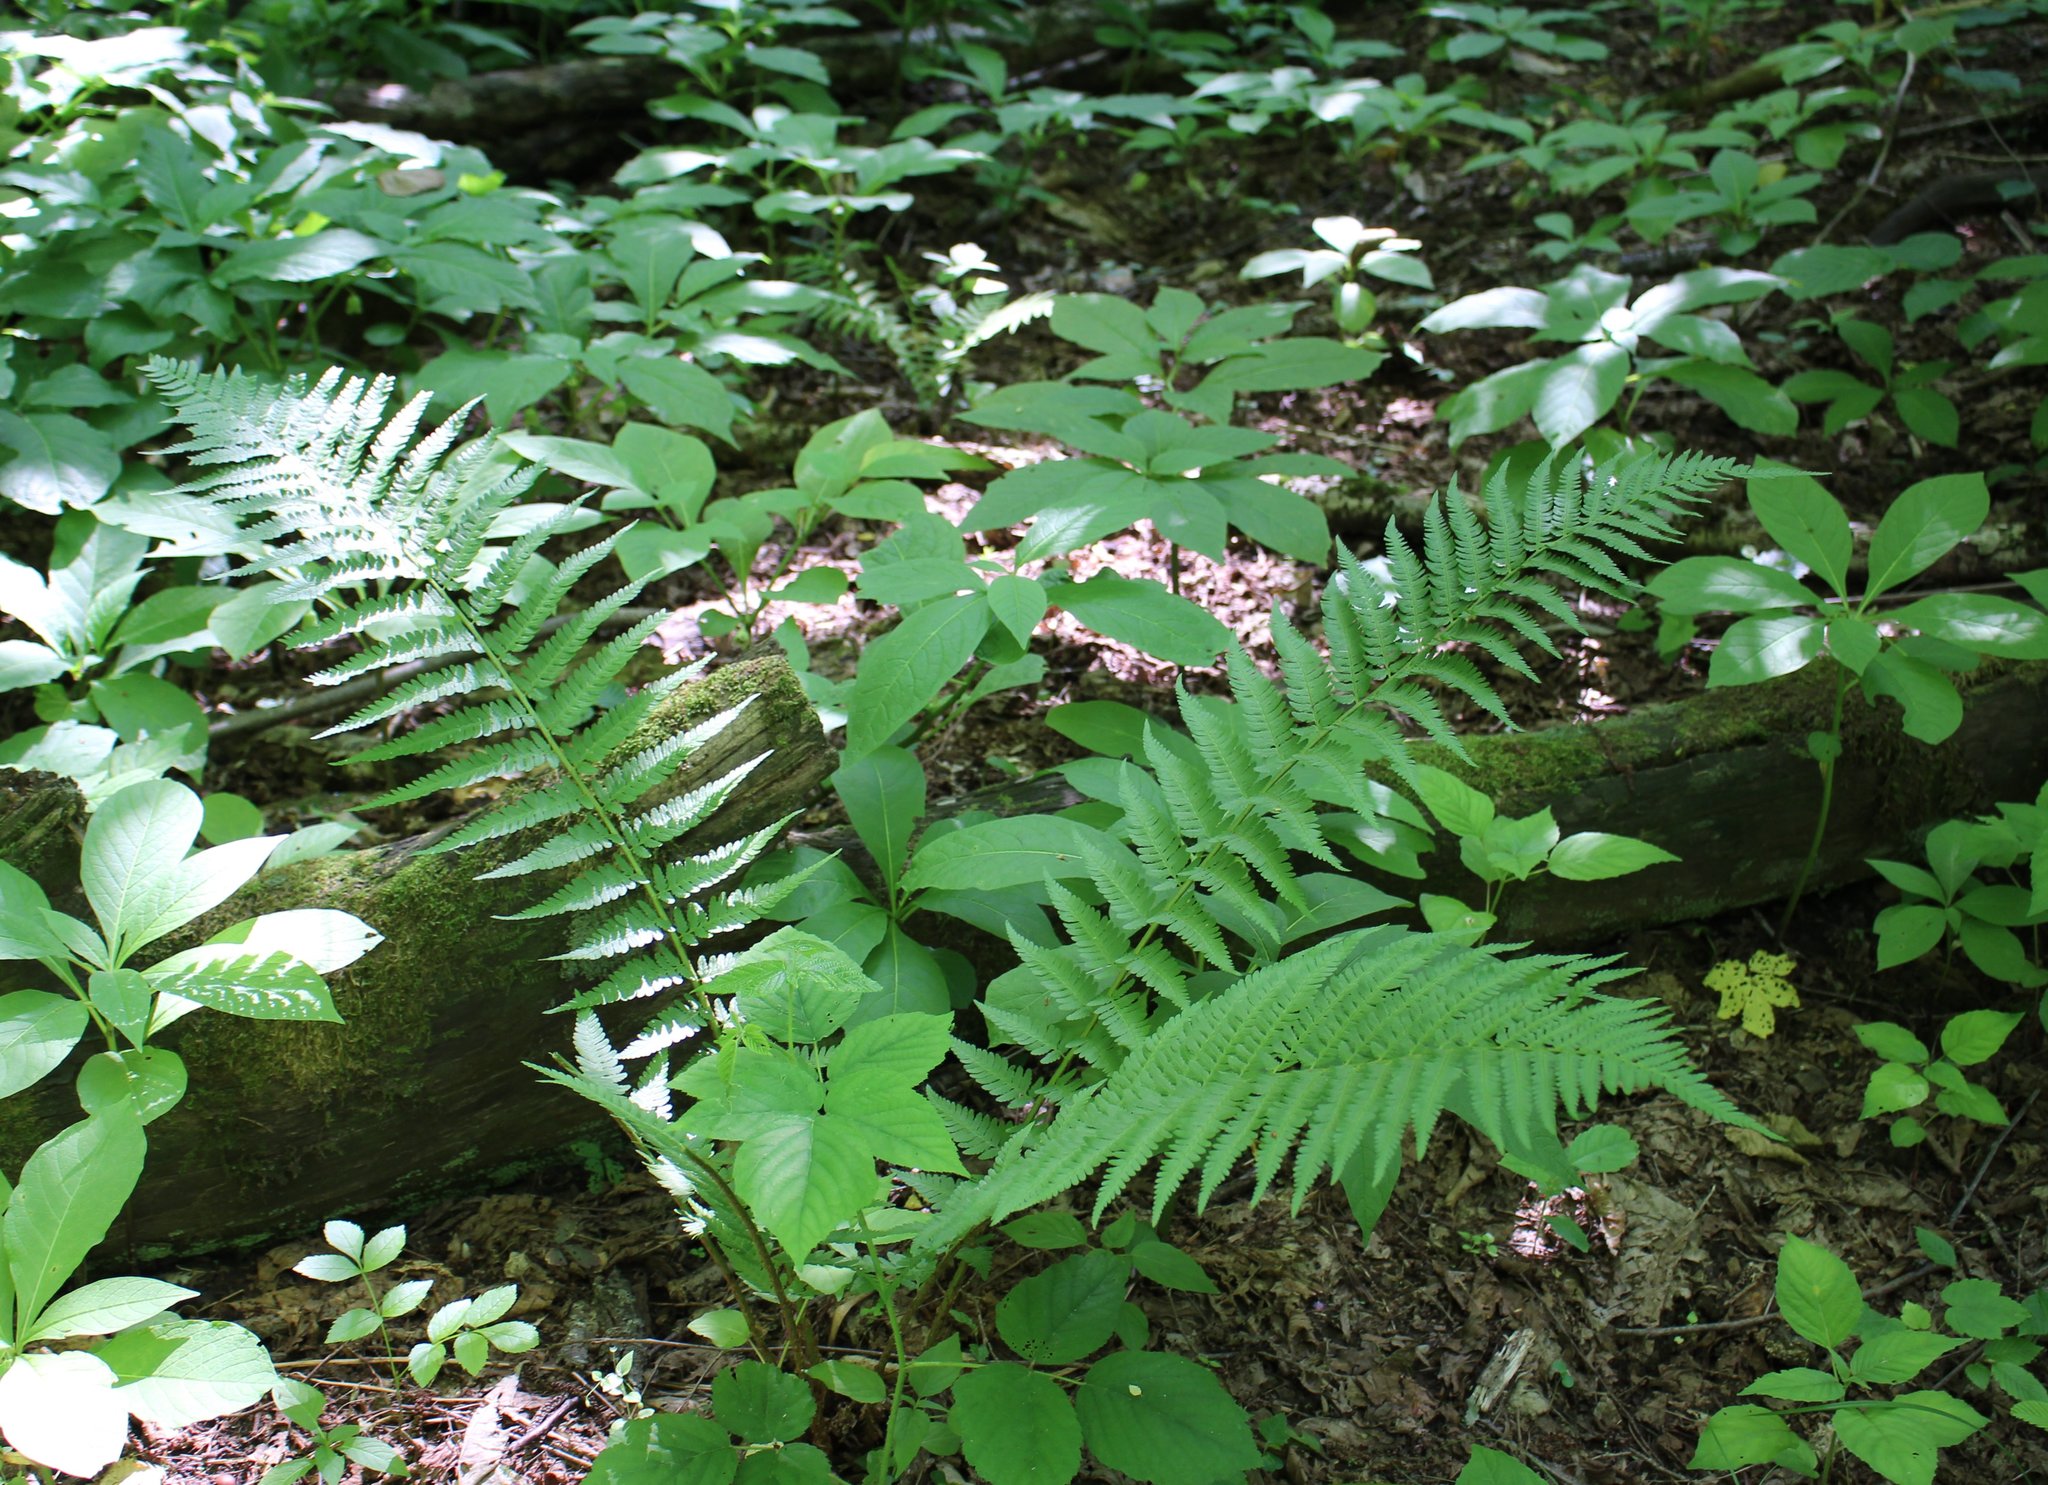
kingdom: Plantae
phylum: Tracheophyta
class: Polypodiopsida
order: Polypodiales
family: Dryopteridaceae
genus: Dryopteris
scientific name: Dryopteris filix-mas
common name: Male fern
